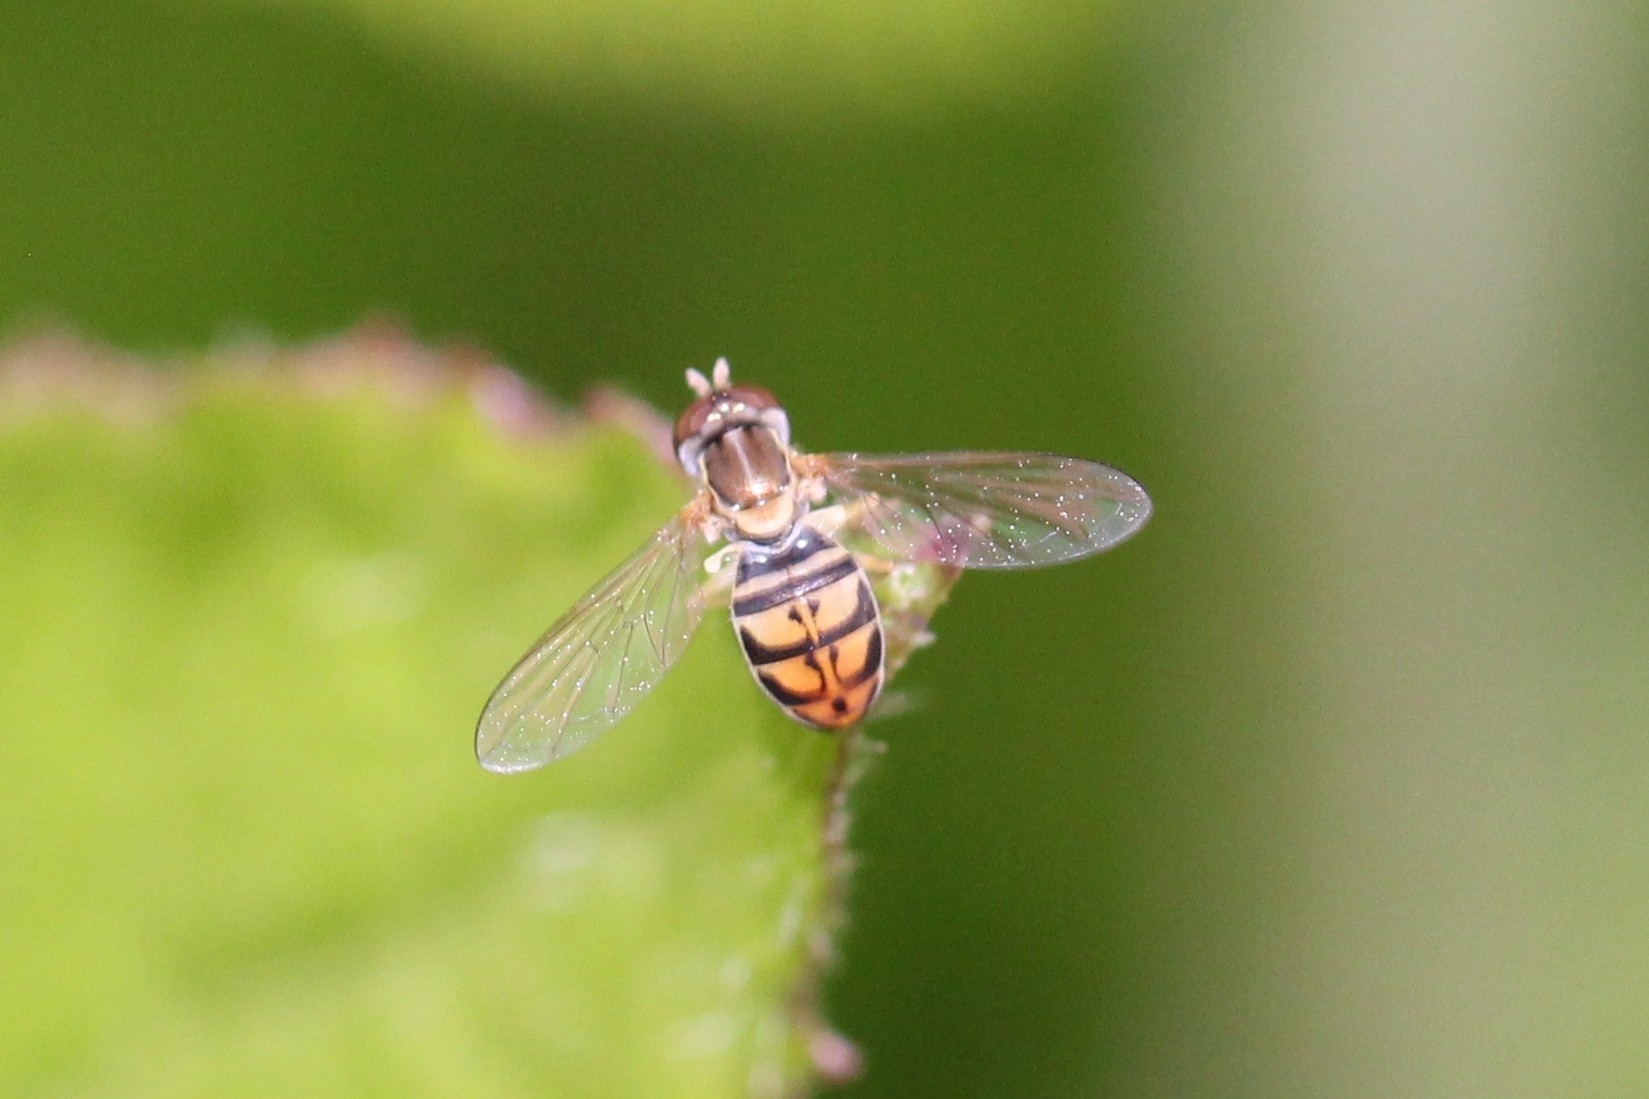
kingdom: Animalia
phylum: Arthropoda
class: Insecta
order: Diptera
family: Syrphidae
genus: Toxomerus
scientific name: Toxomerus marginatus
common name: Syrphid fly
